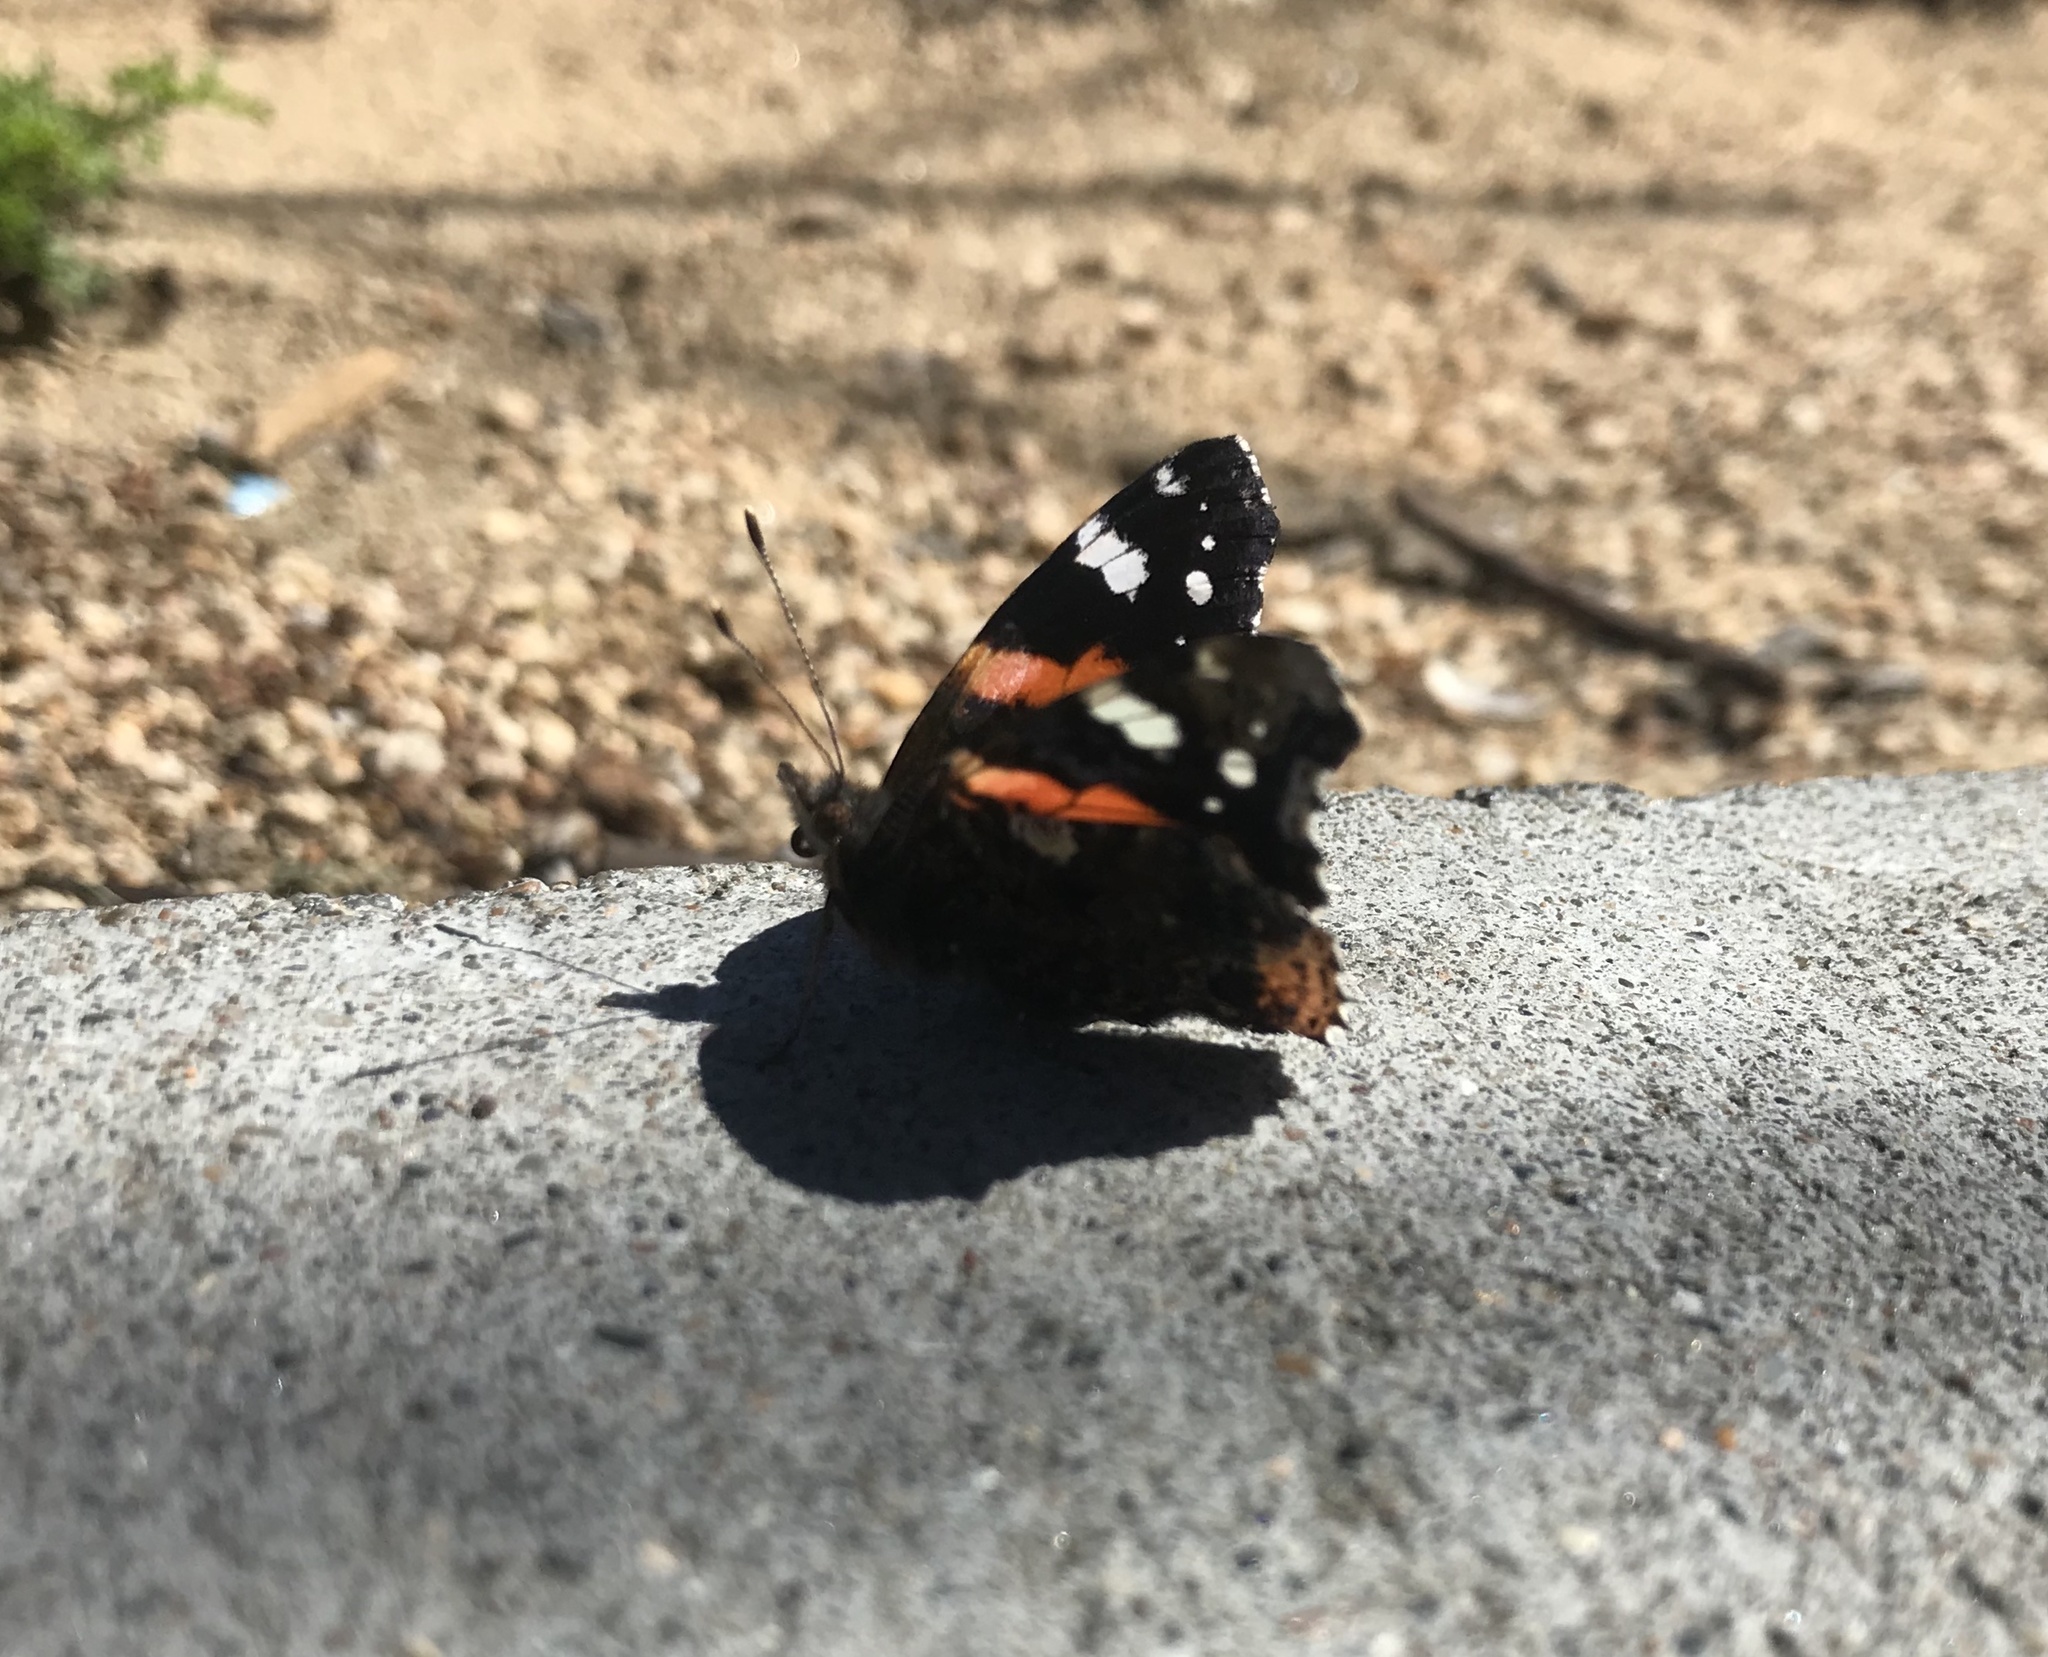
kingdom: Animalia
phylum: Arthropoda
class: Insecta
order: Lepidoptera
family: Nymphalidae
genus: Vanessa
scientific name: Vanessa atalanta
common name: Red admiral
